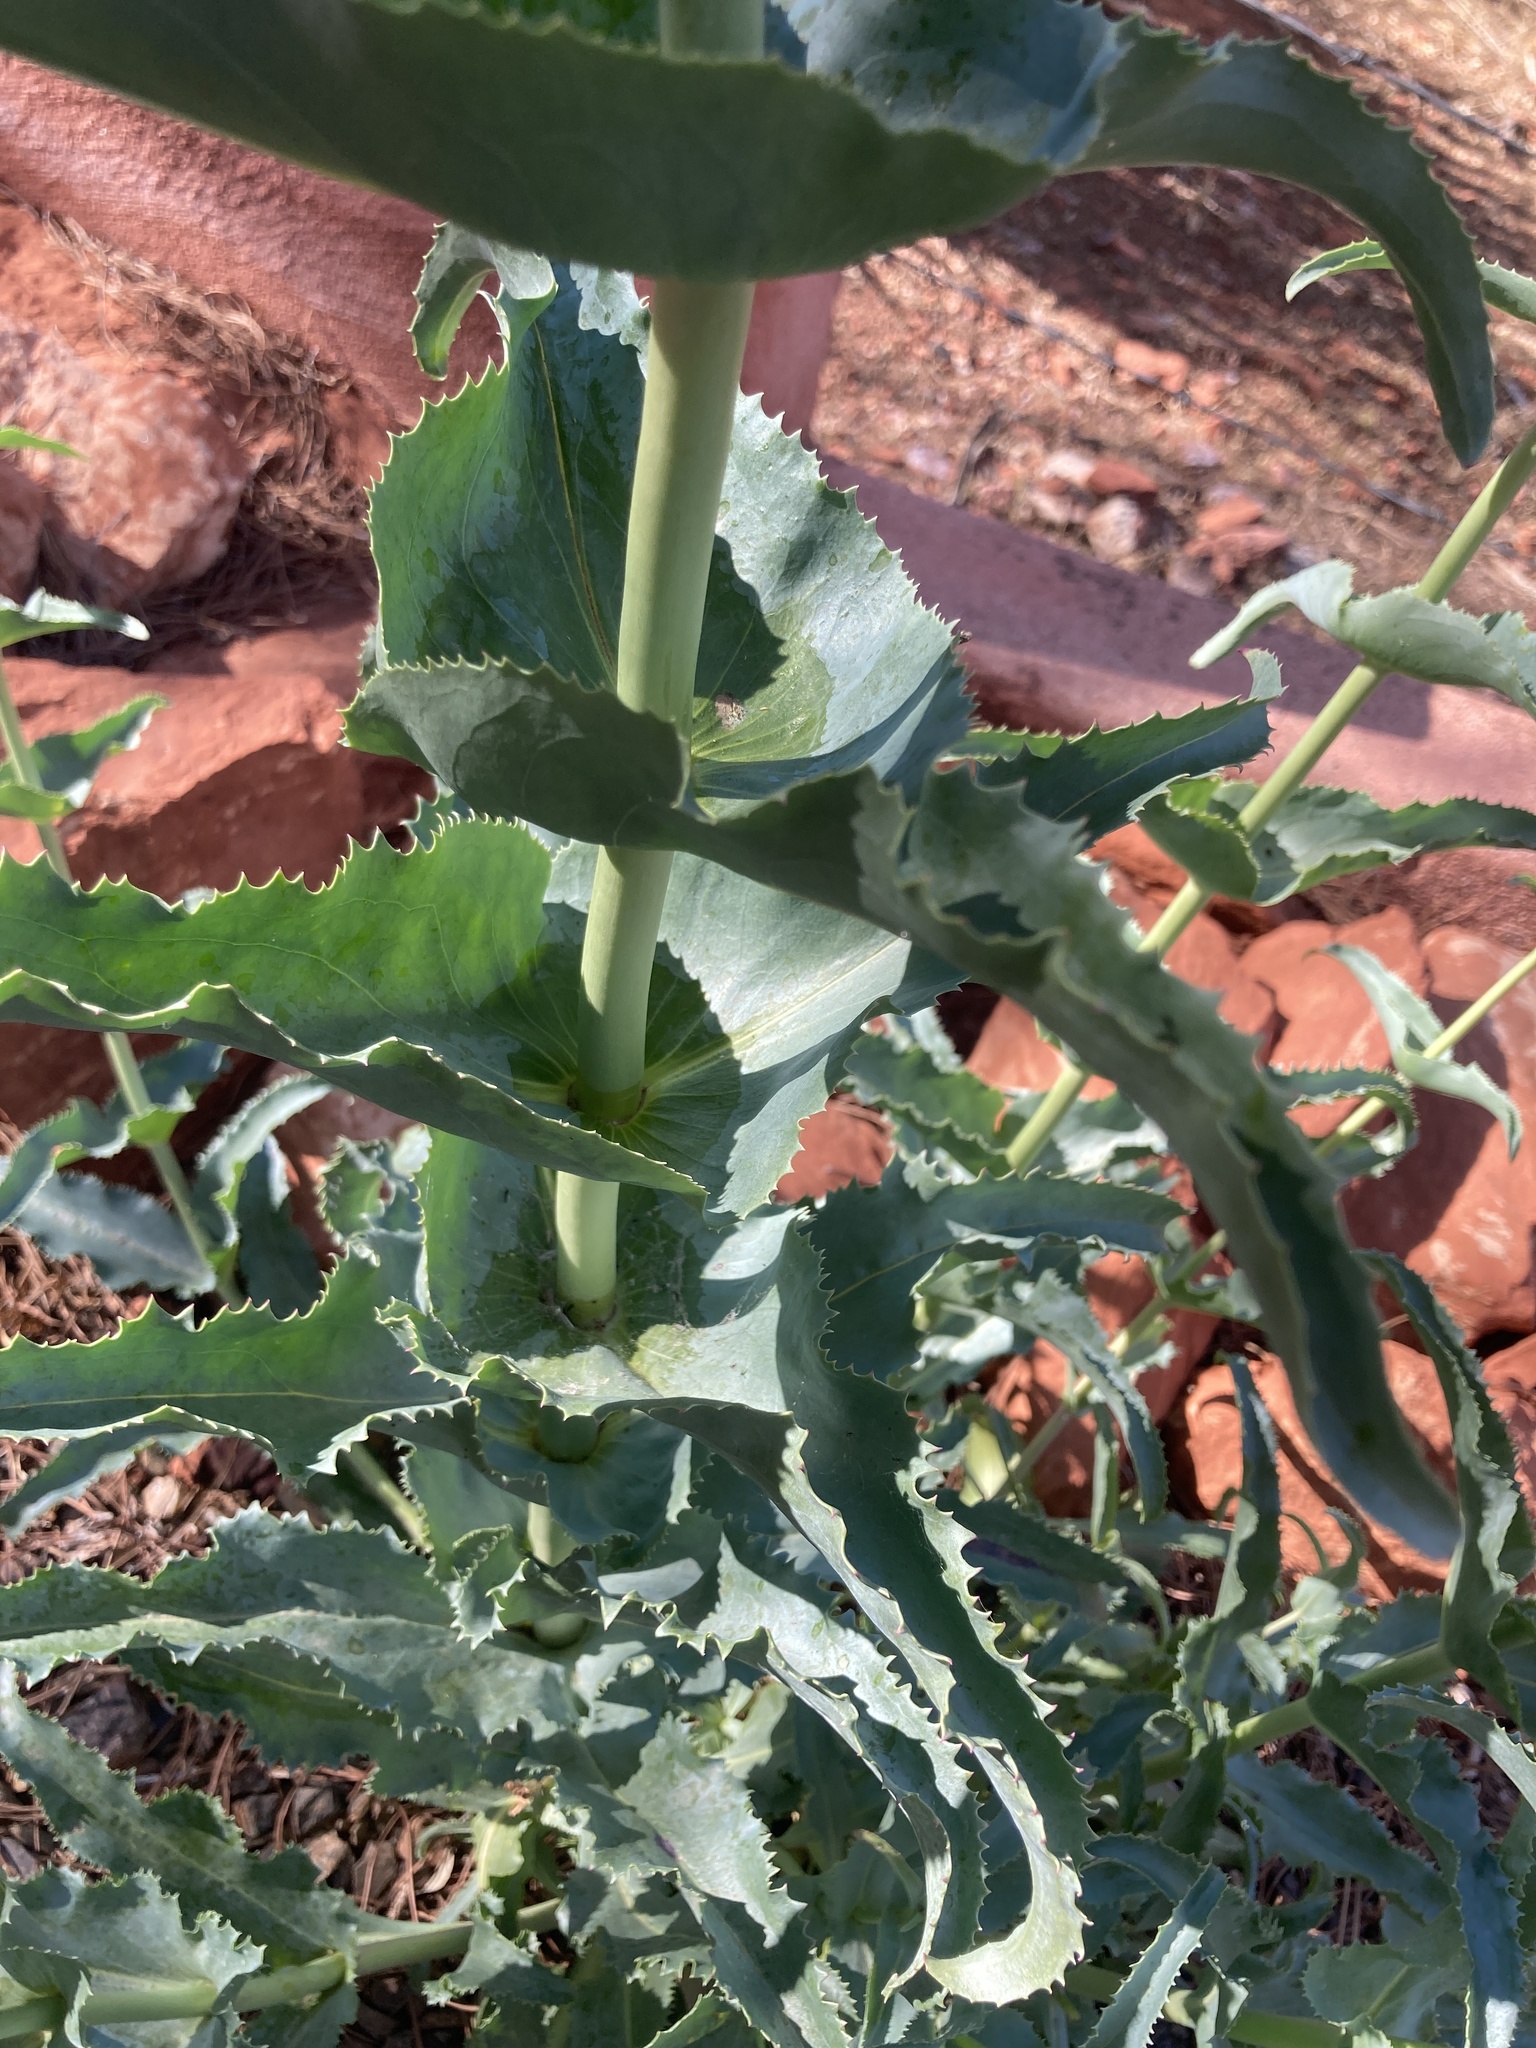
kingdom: Plantae
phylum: Tracheophyta
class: Magnoliopsida
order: Lamiales
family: Plantaginaceae
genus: Penstemon
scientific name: Penstemon palmeri
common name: Palmer penstemon
